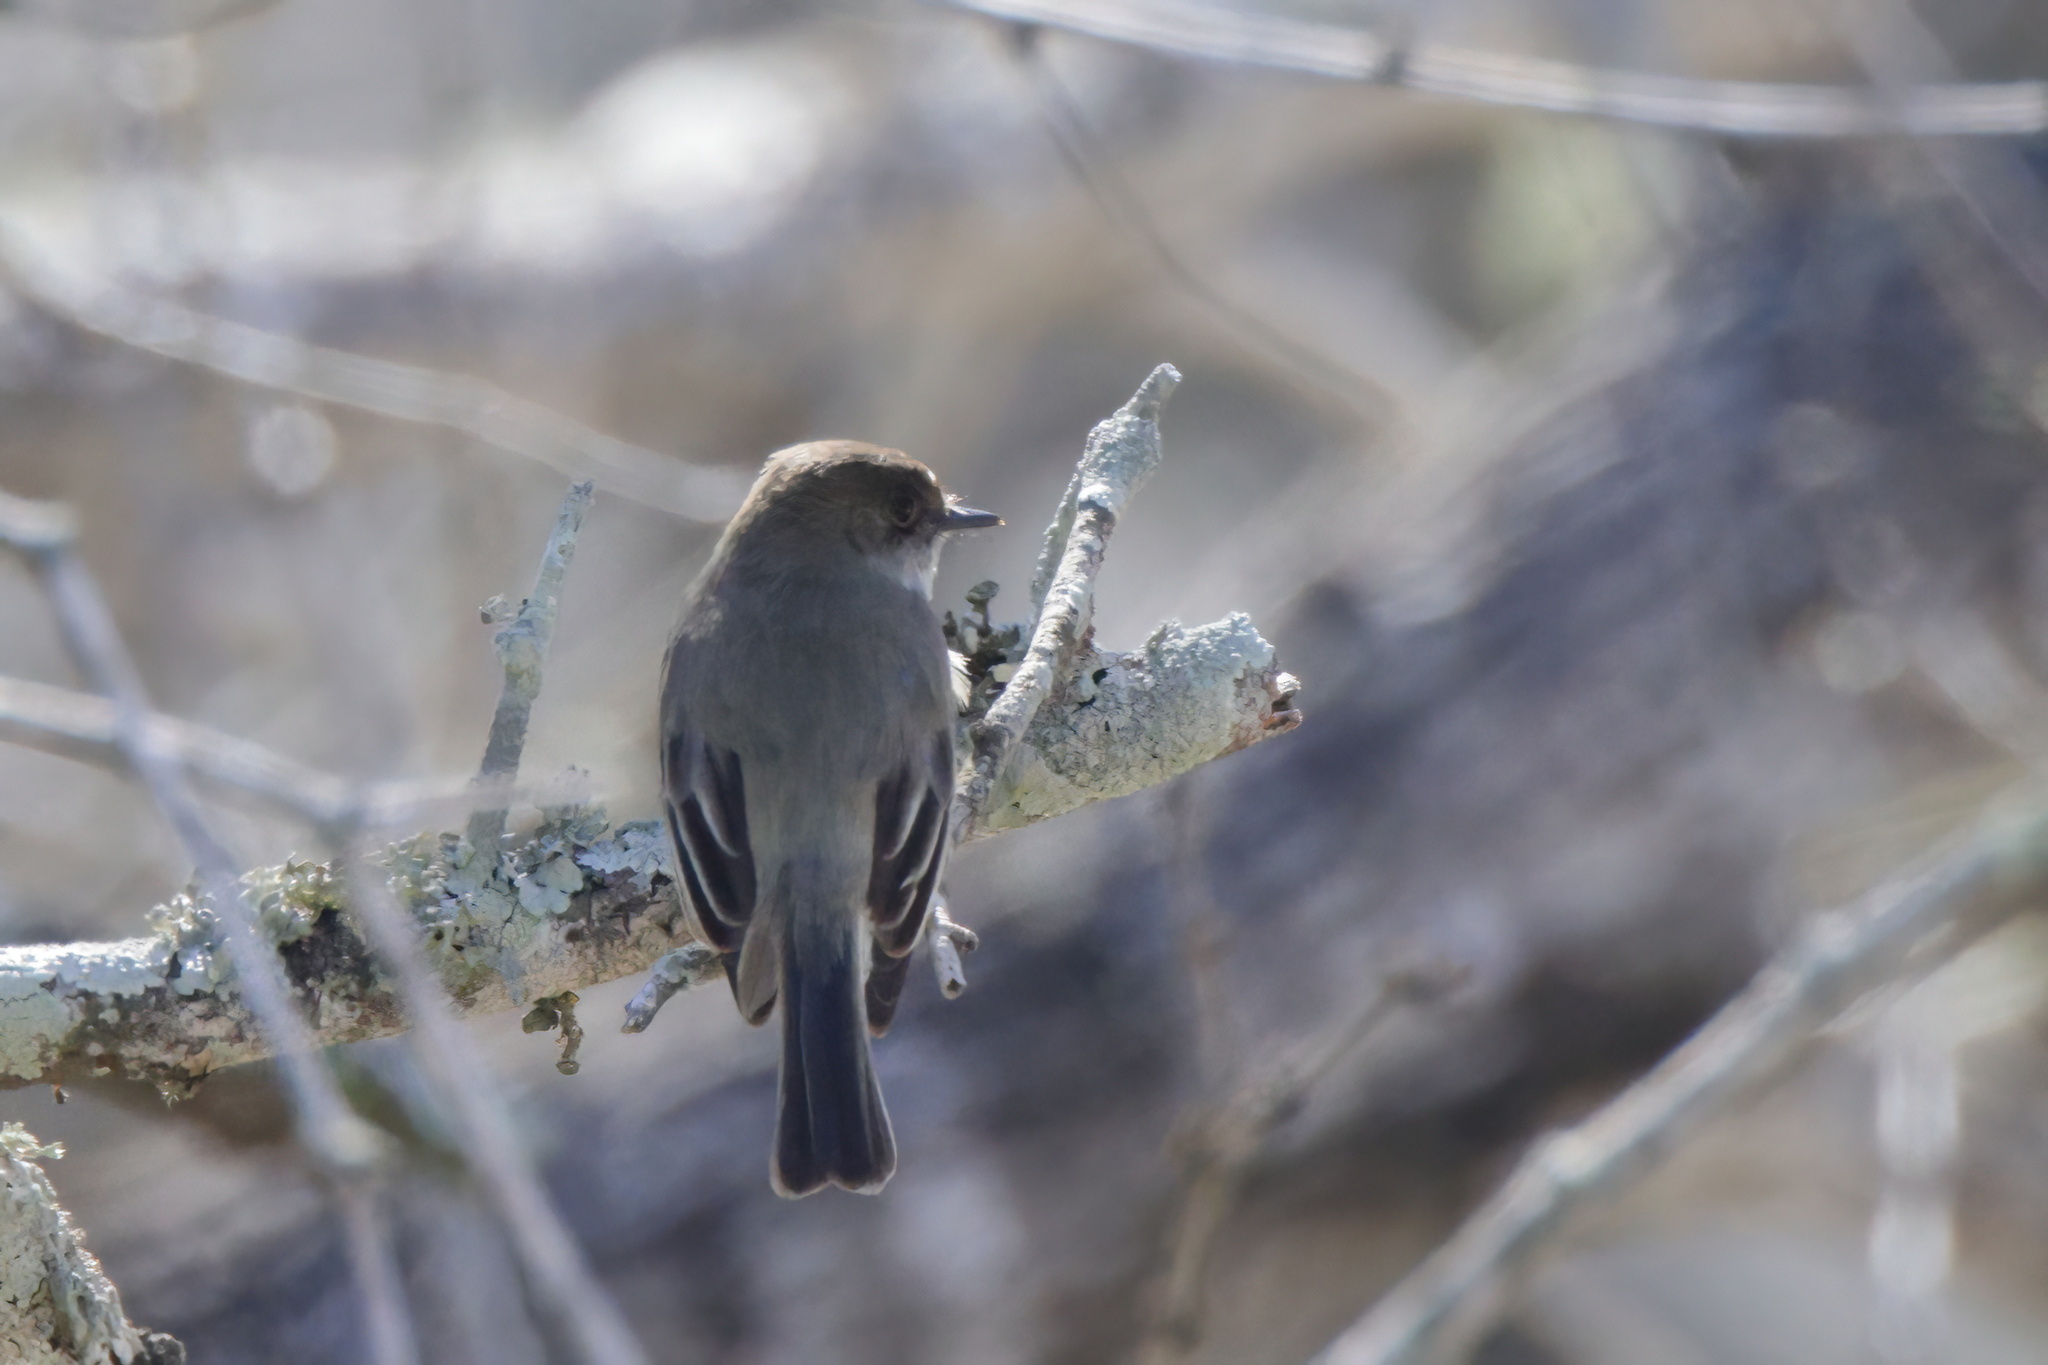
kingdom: Animalia
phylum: Chordata
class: Aves
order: Passeriformes
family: Tyrannidae
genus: Sayornis
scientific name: Sayornis phoebe
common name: Eastern phoebe
